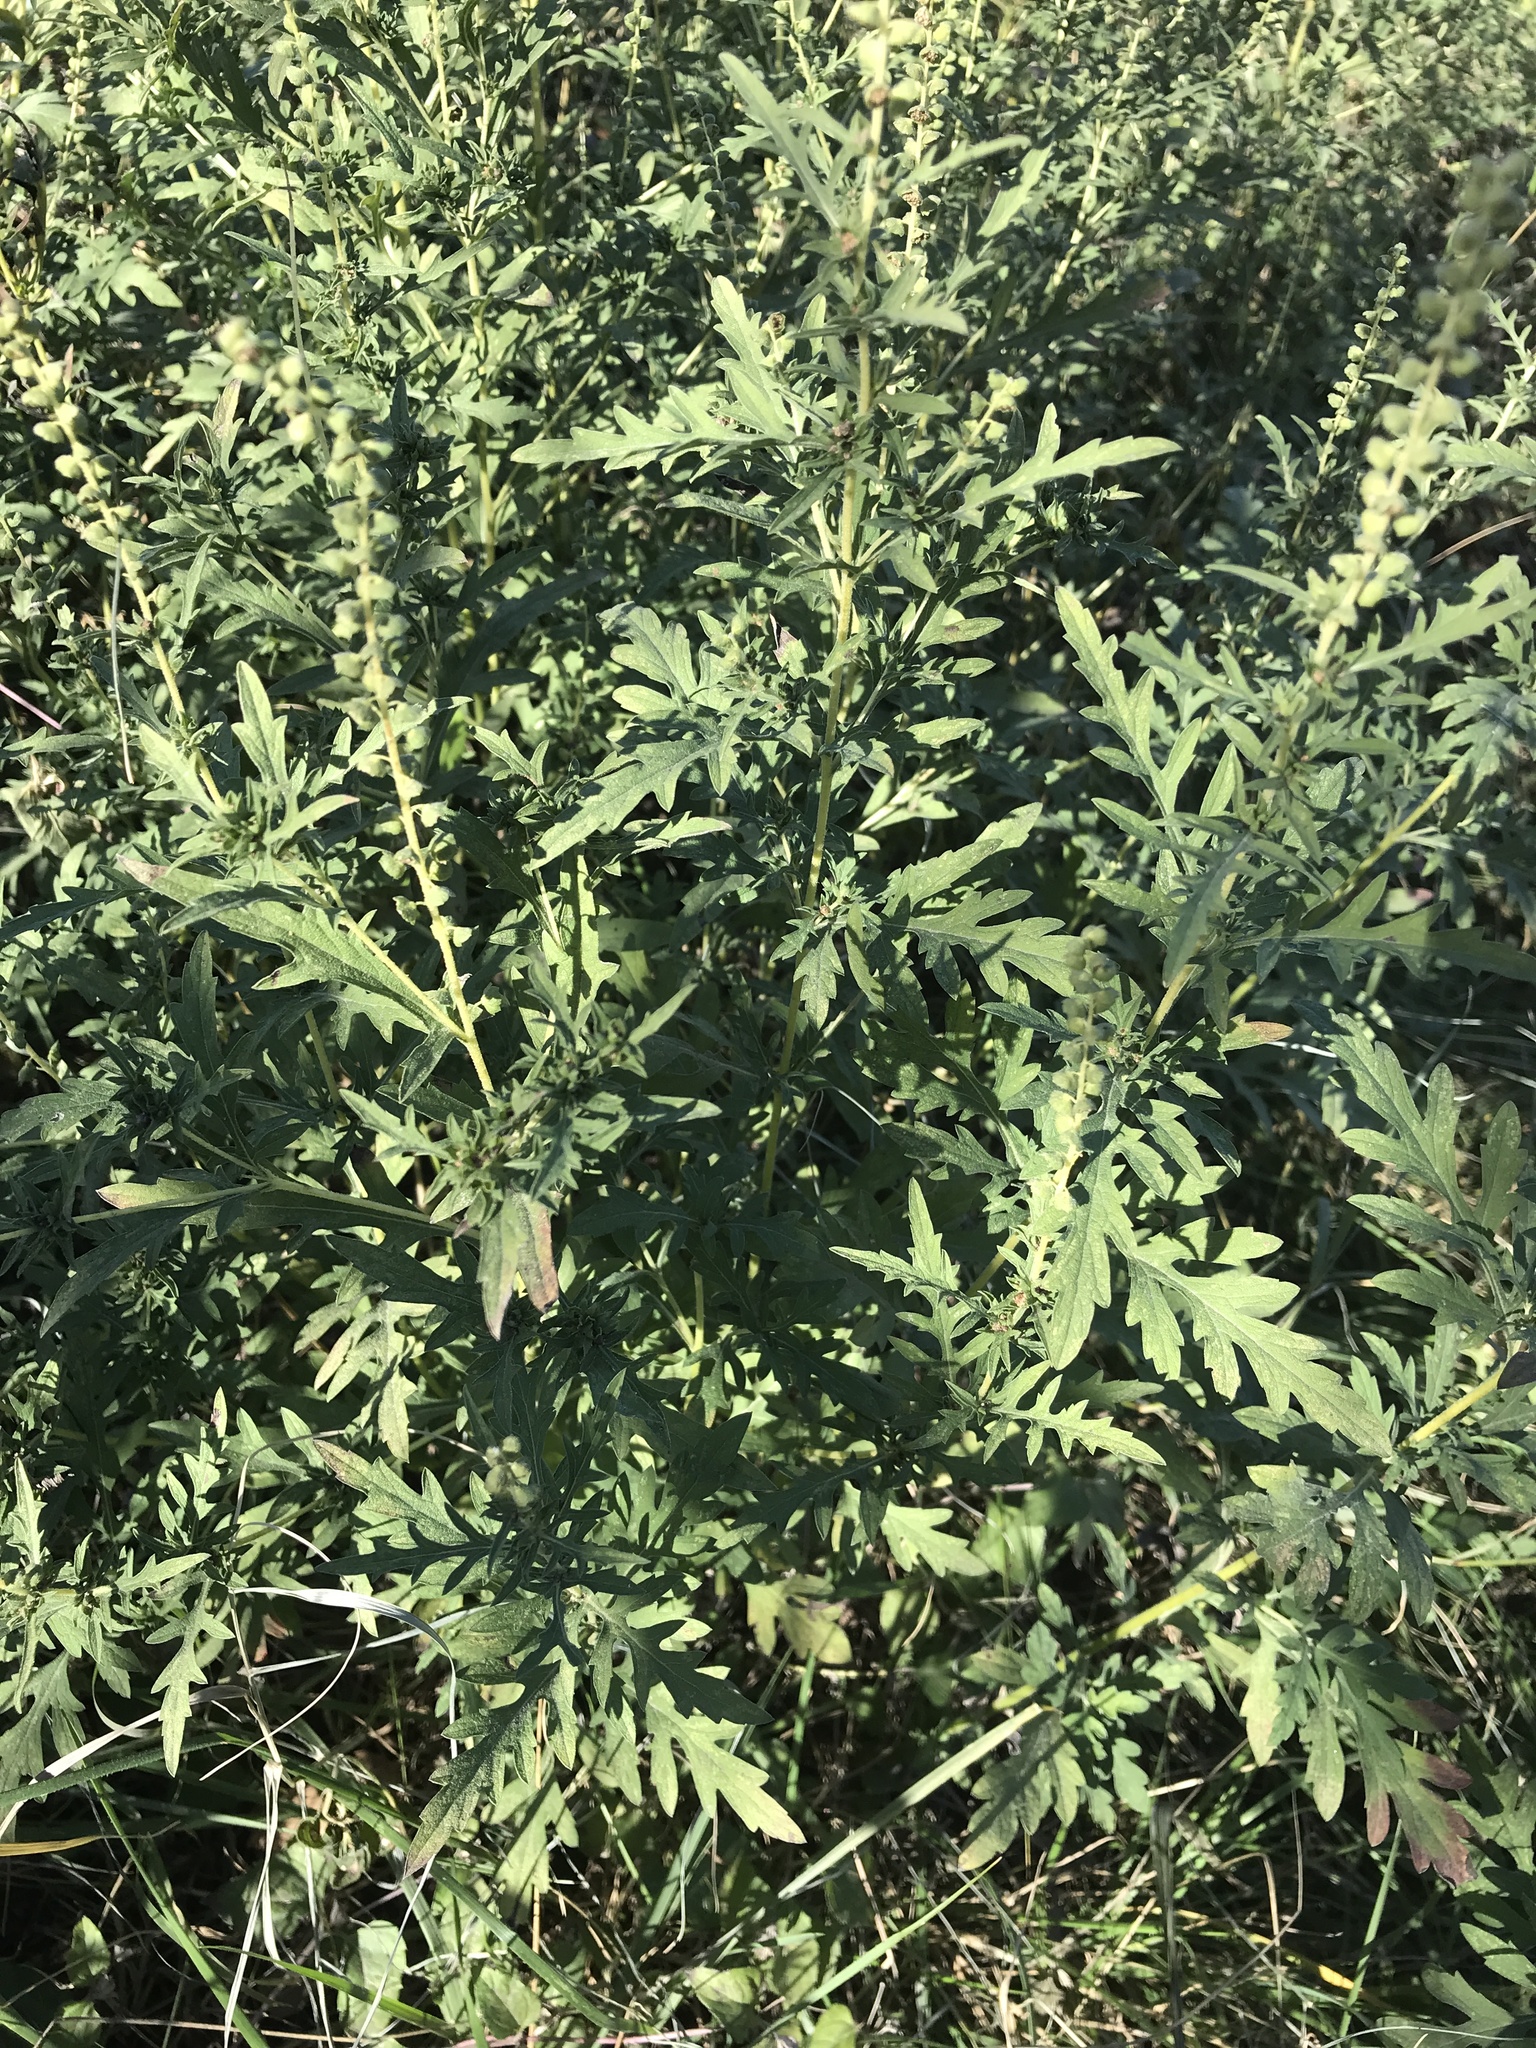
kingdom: Plantae
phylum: Tracheophyta
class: Magnoliopsida
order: Asterales
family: Asteraceae
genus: Ambrosia
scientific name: Ambrosia psilostachya
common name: Perennial ragweed
